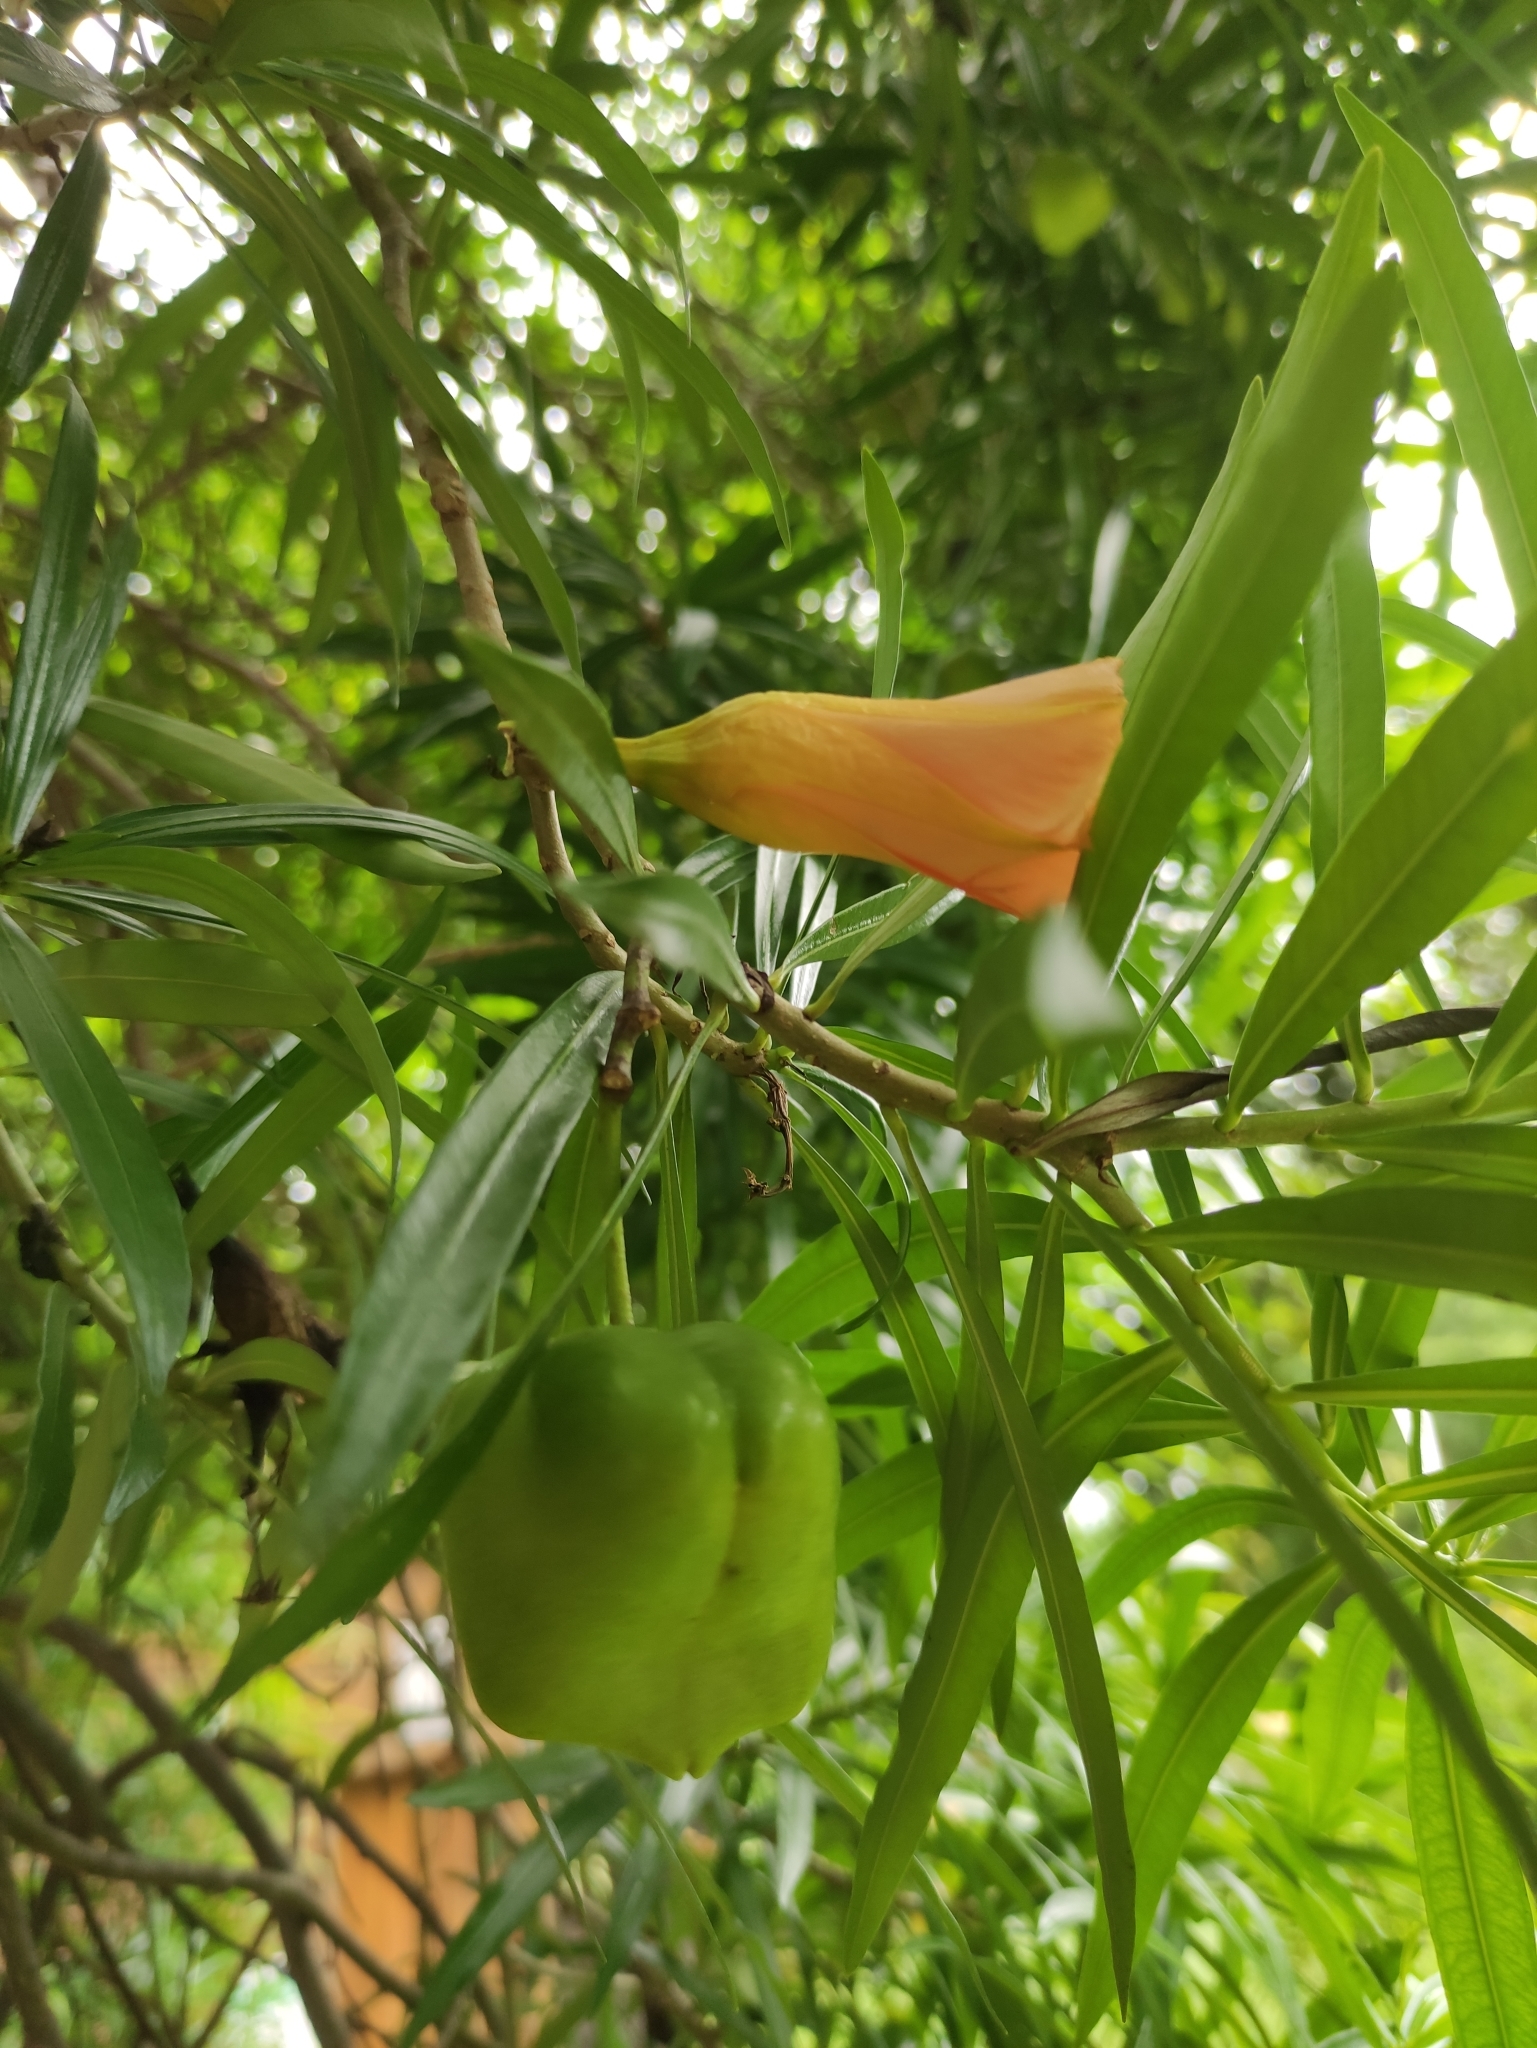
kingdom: Plantae
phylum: Tracheophyta
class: Magnoliopsida
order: Gentianales
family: Apocynaceae
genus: Cascabela
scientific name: Cascabela thevetia
